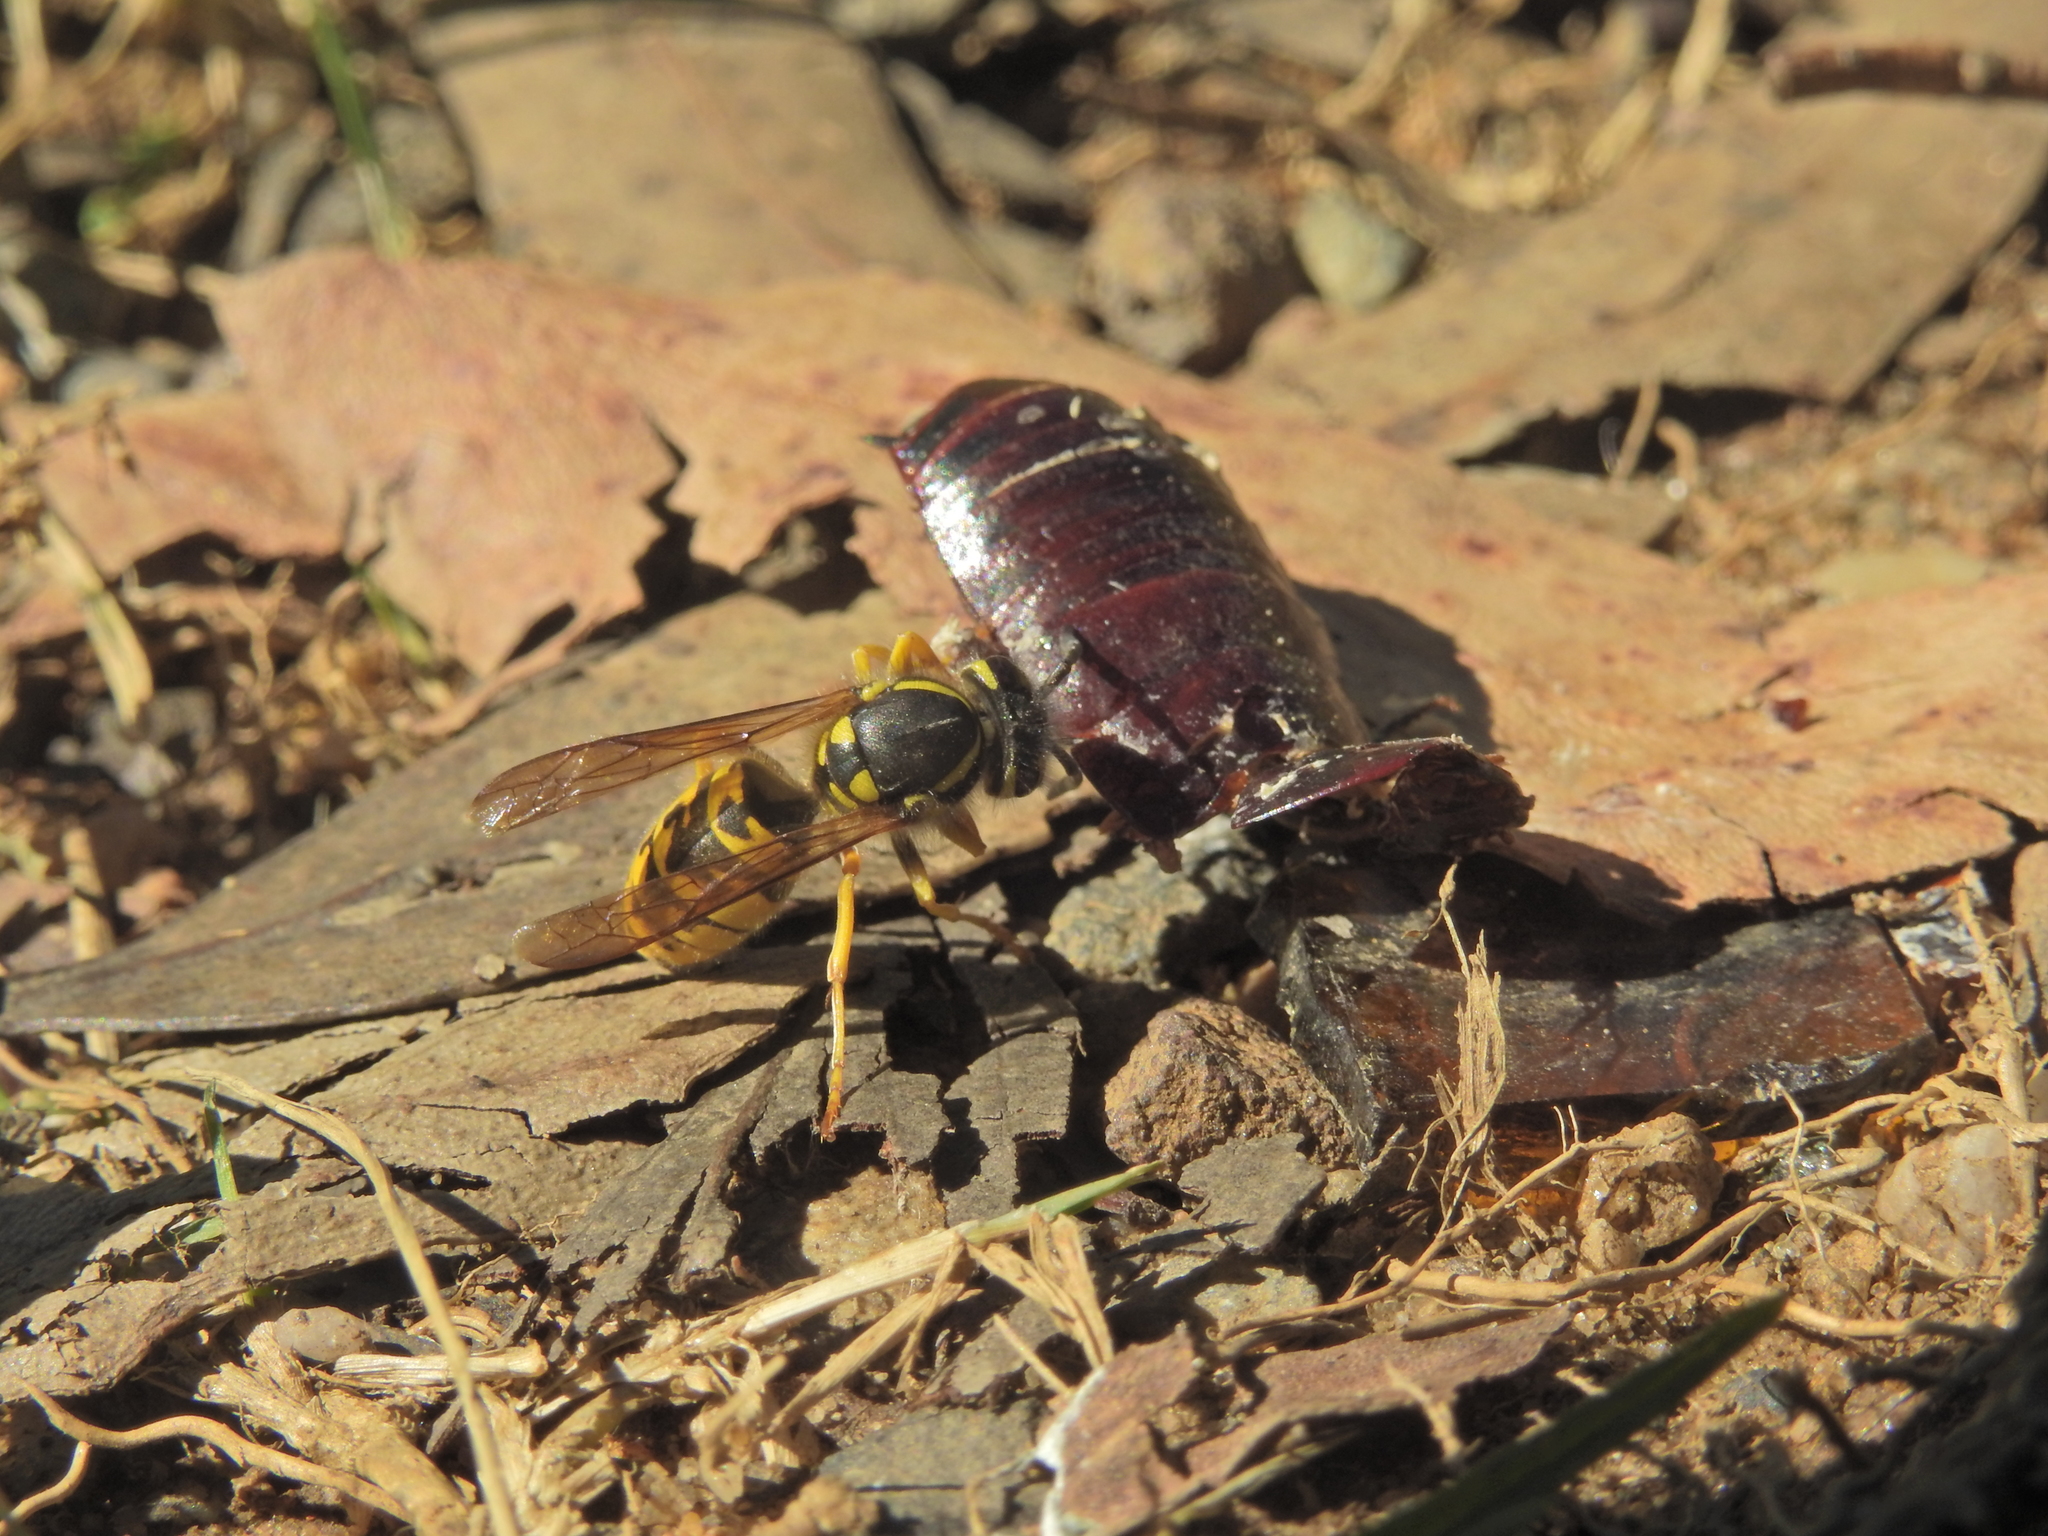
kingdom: Animalia
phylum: Arthropoda
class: Insecta
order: Hymenoptera
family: Vespidae
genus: Vespula
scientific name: Vespula germanica
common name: German wasp
